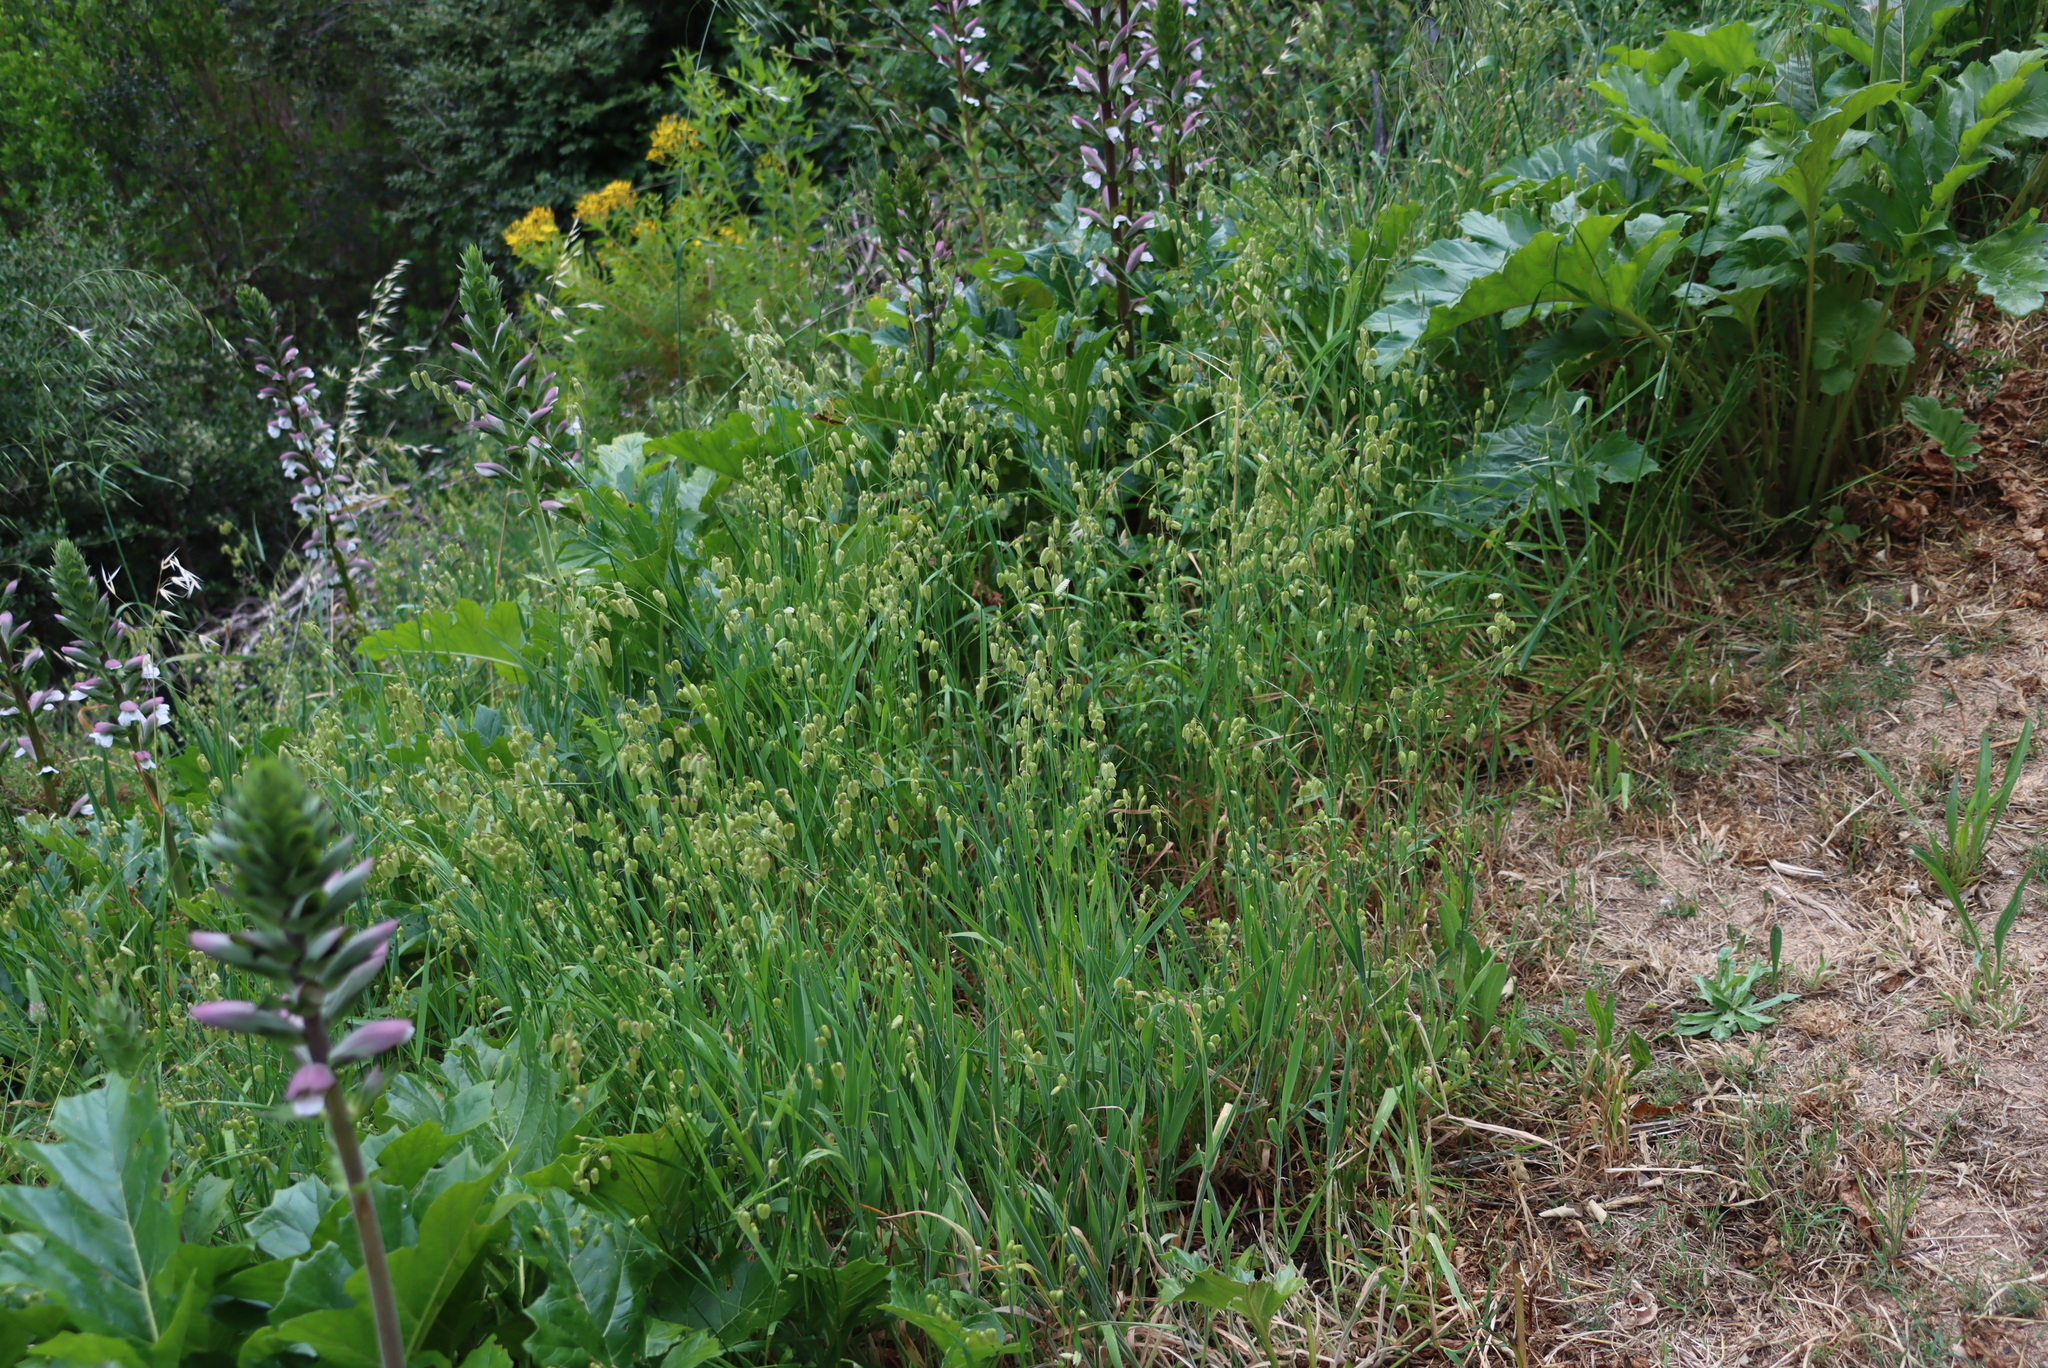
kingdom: Plantae
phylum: Tracheophyta
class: Liliopsida
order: Poales
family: Poaceae
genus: Briza
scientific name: Briza maxima
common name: Big quakinggrass
